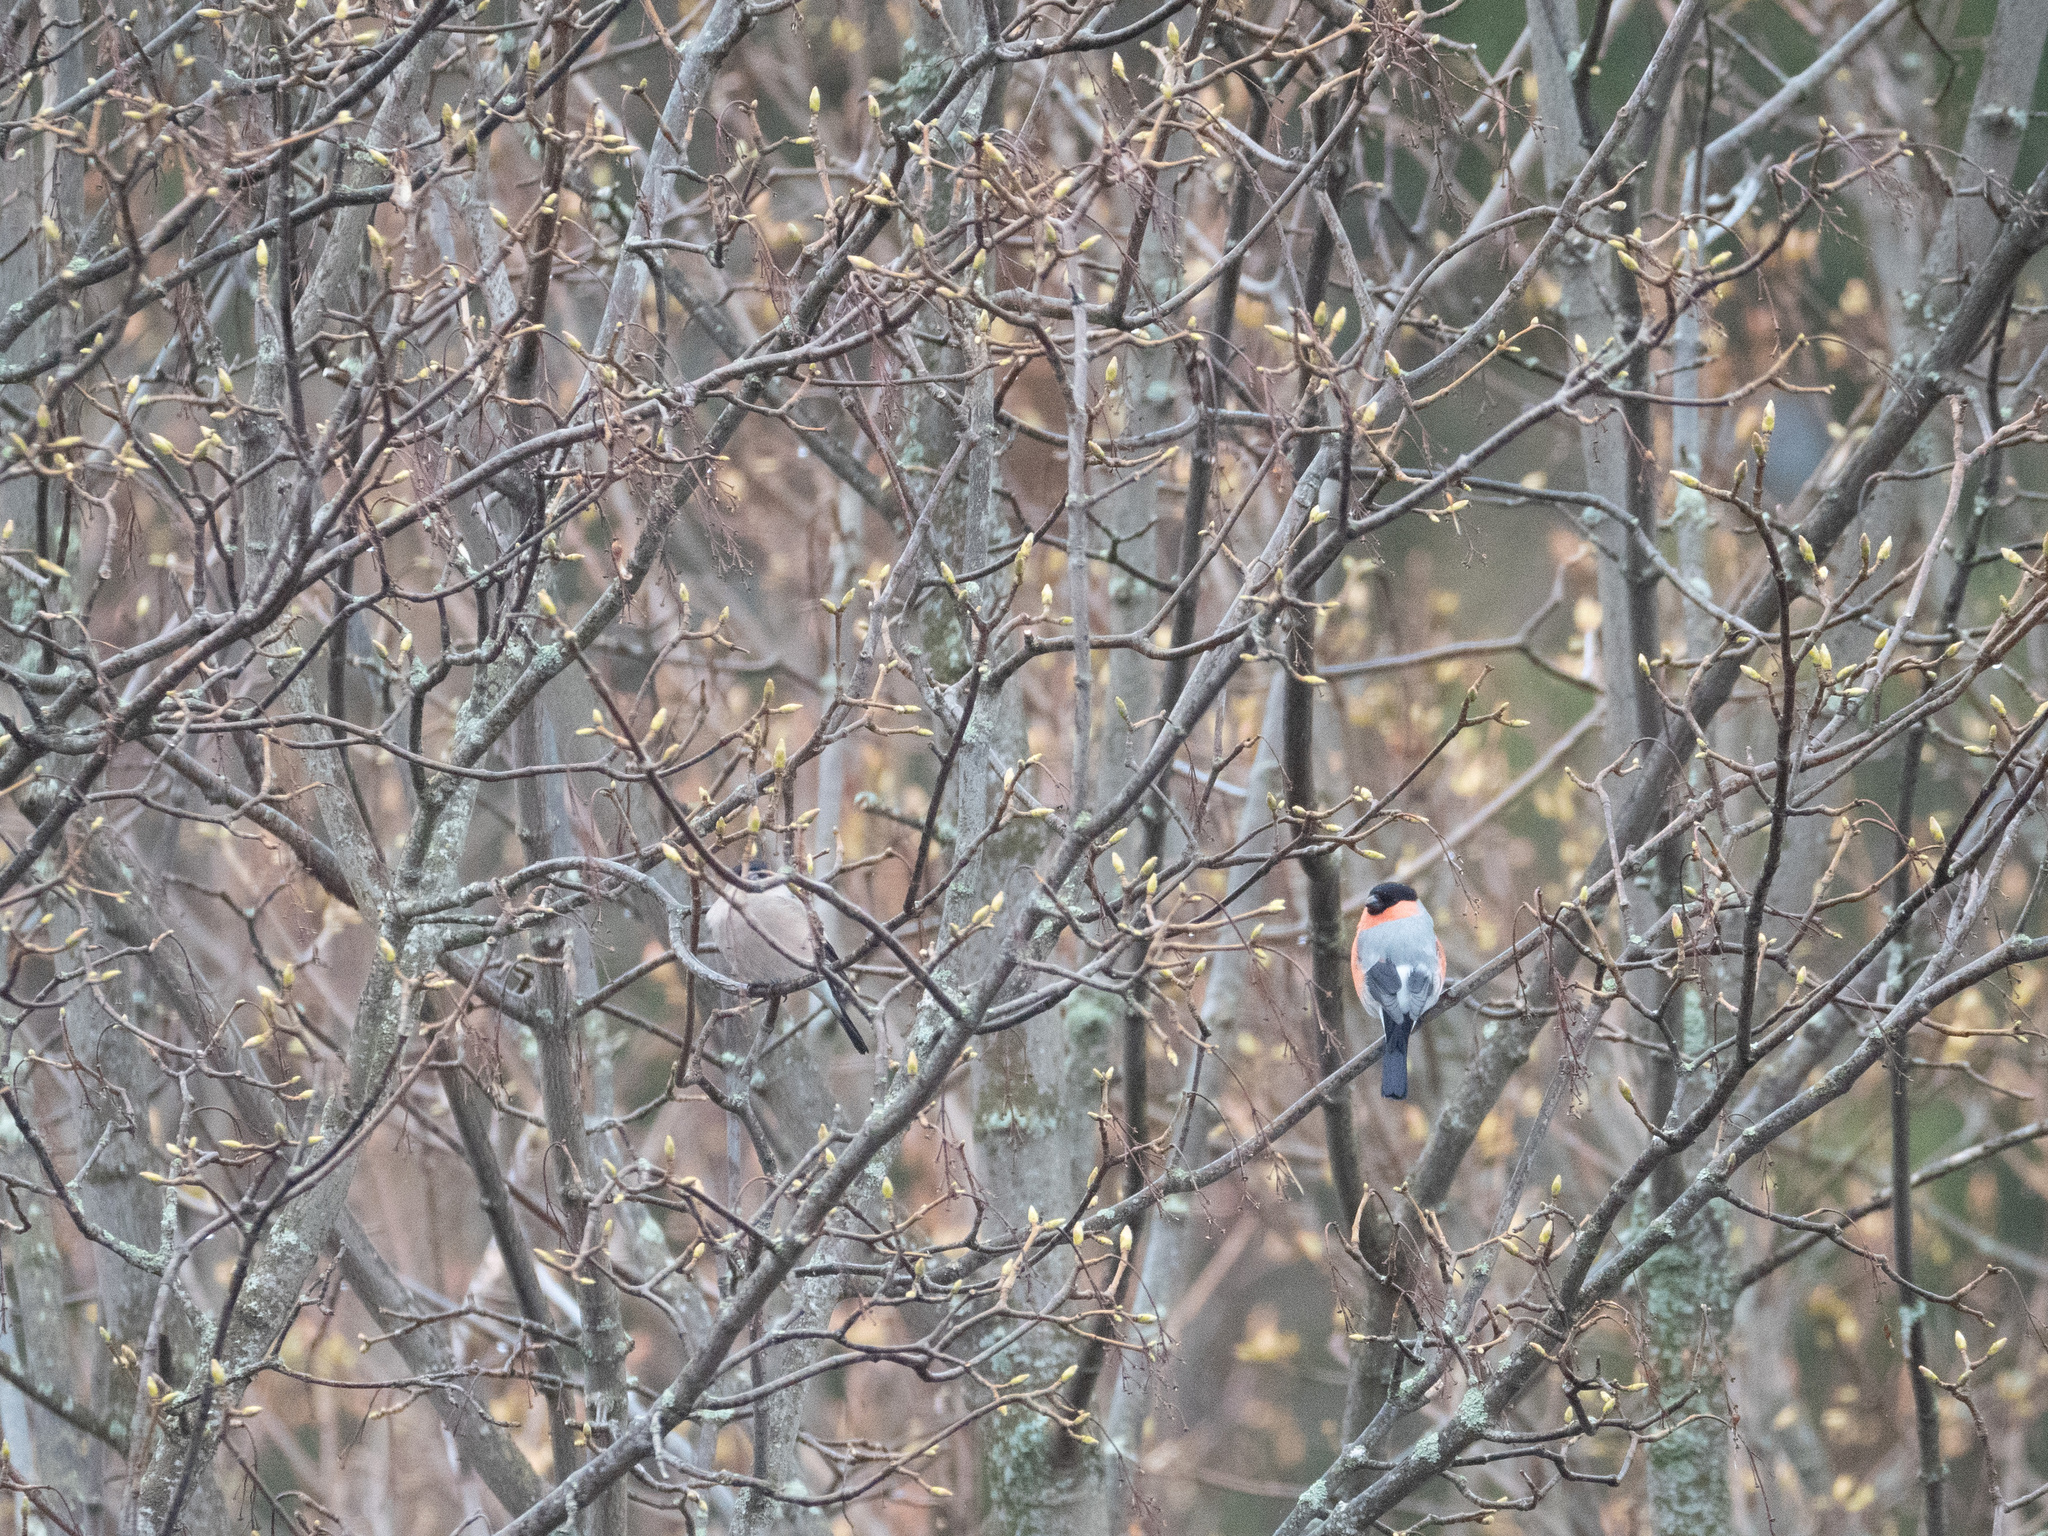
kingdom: Animalia
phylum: Chordata
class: Aves
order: Passeriformes
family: Fringillidae
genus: Pyrrhula
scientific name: Pyrrhula pyrrhula
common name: Eurasian bullfinch
